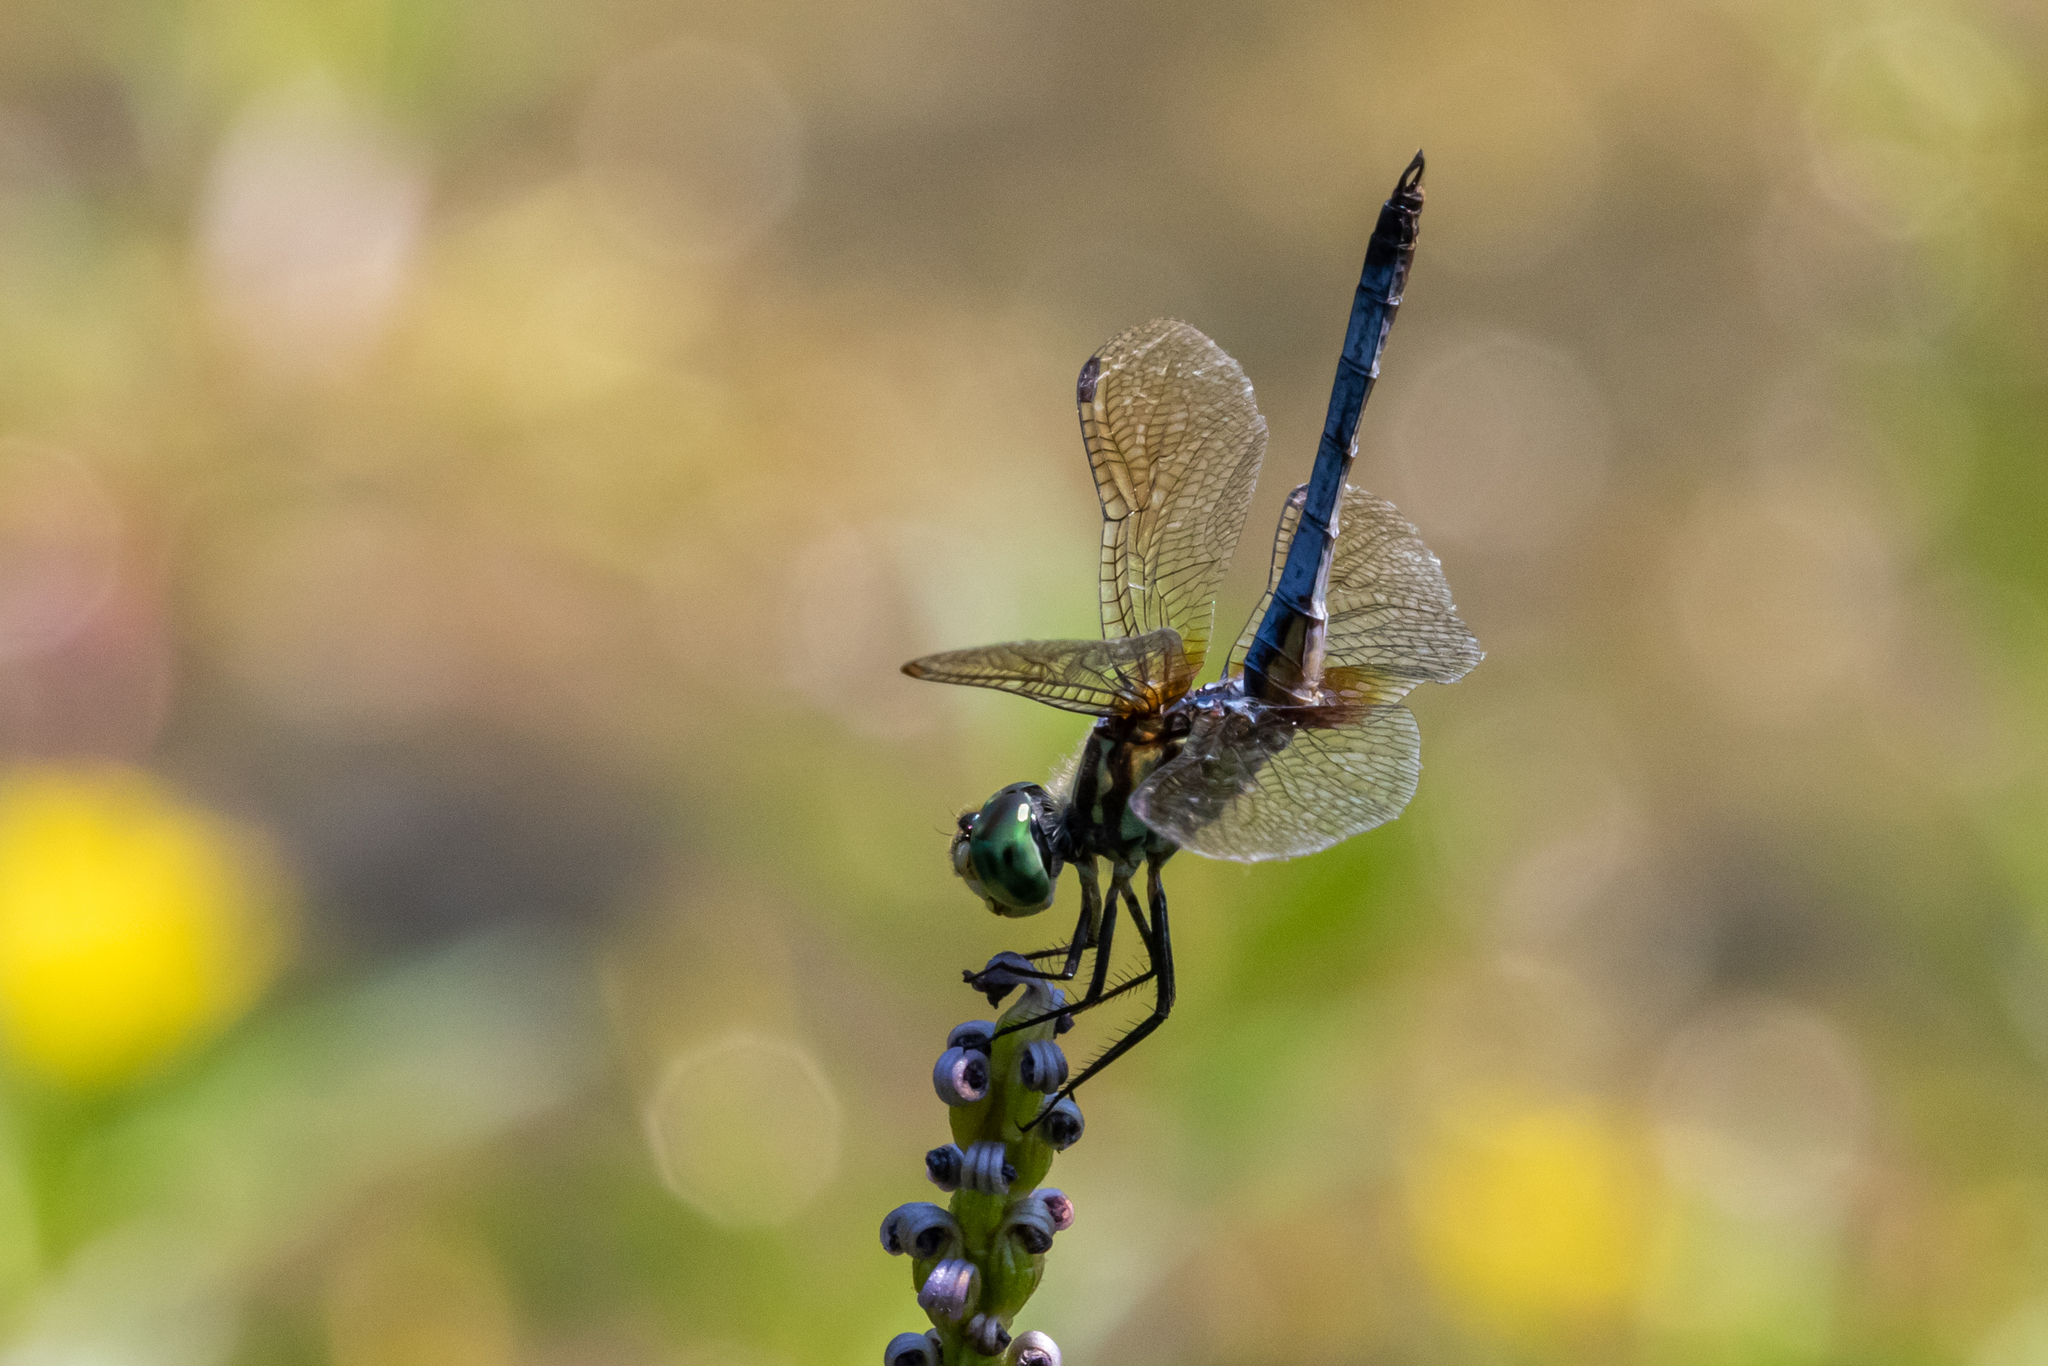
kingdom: Animalia
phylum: Arthropoda
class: Insecta
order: Odonata
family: Libellulidae
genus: Pachydiplax
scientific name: Pachydiplax longipennis
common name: Blue dasher
